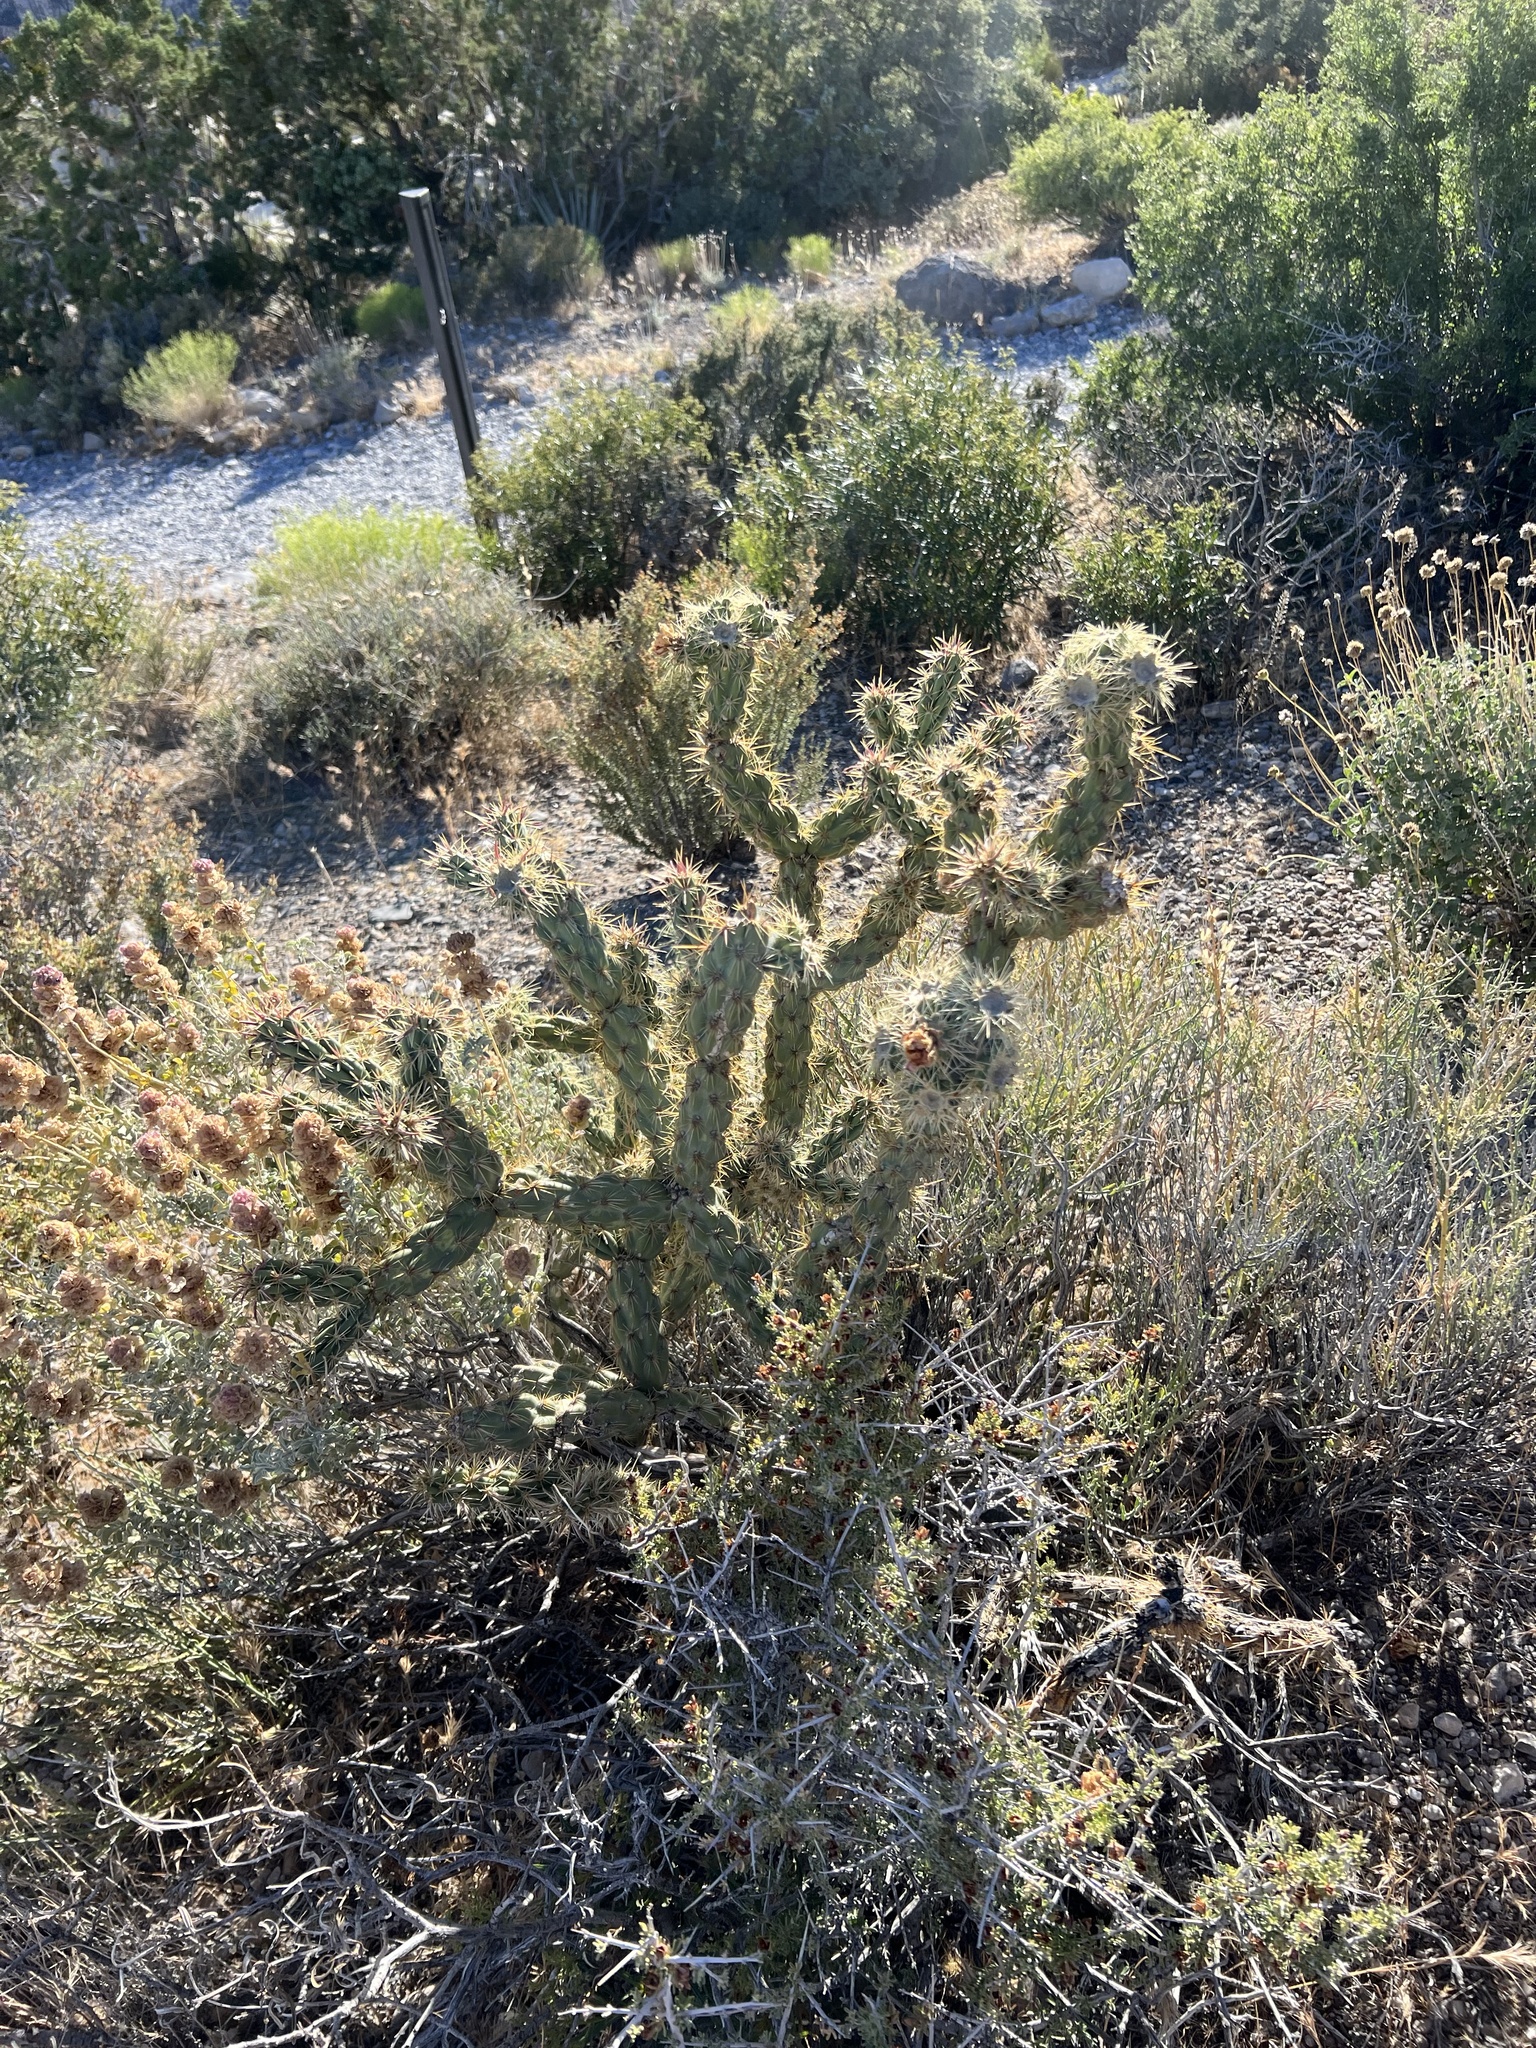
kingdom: Plantae
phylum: Tracheophyta
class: Magnoliopsida
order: Caryophyllales
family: Cactaceae
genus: Cylindropuntia
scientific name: Cylindropuntia acanthocarpa
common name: Buckhorn cholla
